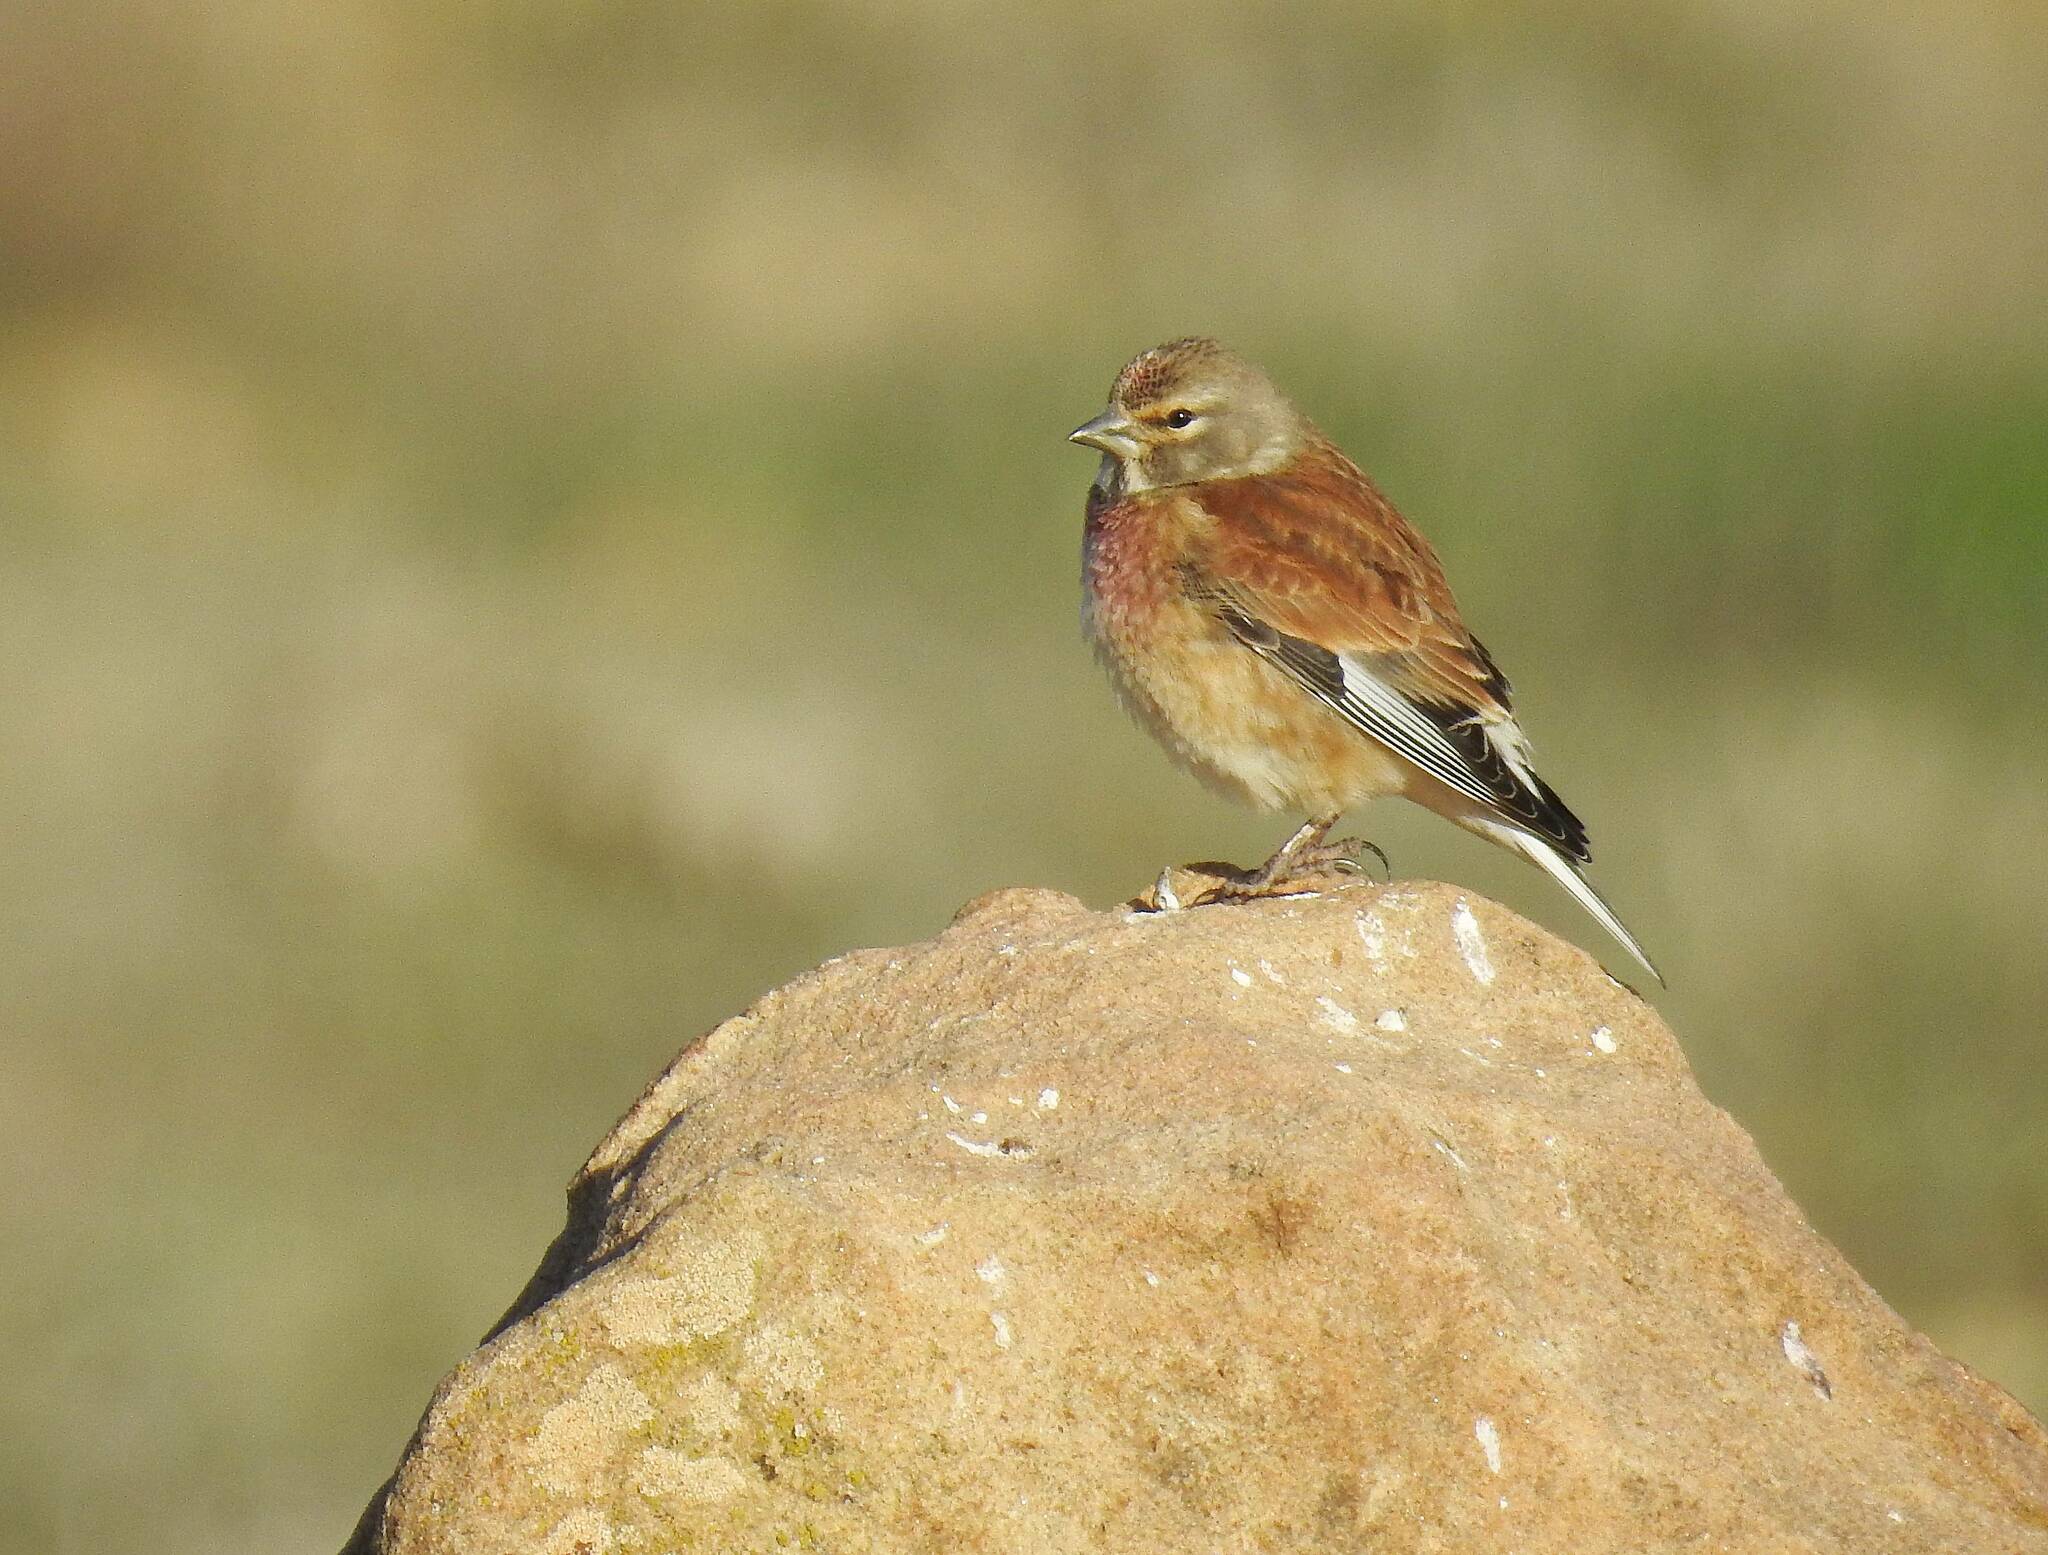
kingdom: Animalia
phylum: Chordata
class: Aves
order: Passeriformes
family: Fringillidae
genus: Linaria
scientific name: Linaria cannabina
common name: Common linnet
